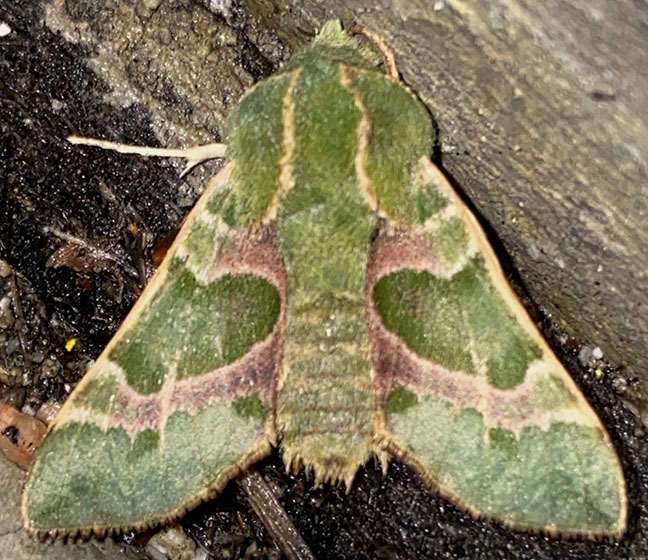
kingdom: Animalia
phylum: Arthropoda
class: Insecta
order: Lepidoptera
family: Sphingidae
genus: Proserpinus
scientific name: Proserpinus lucidus
